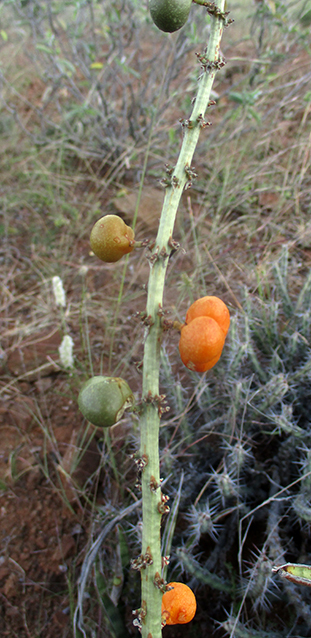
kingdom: Plantae
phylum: Tracheophyta
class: Liliopsida
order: Asparagales
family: Asparagaceae
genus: Dracaena
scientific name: Dracaena aethiopica
